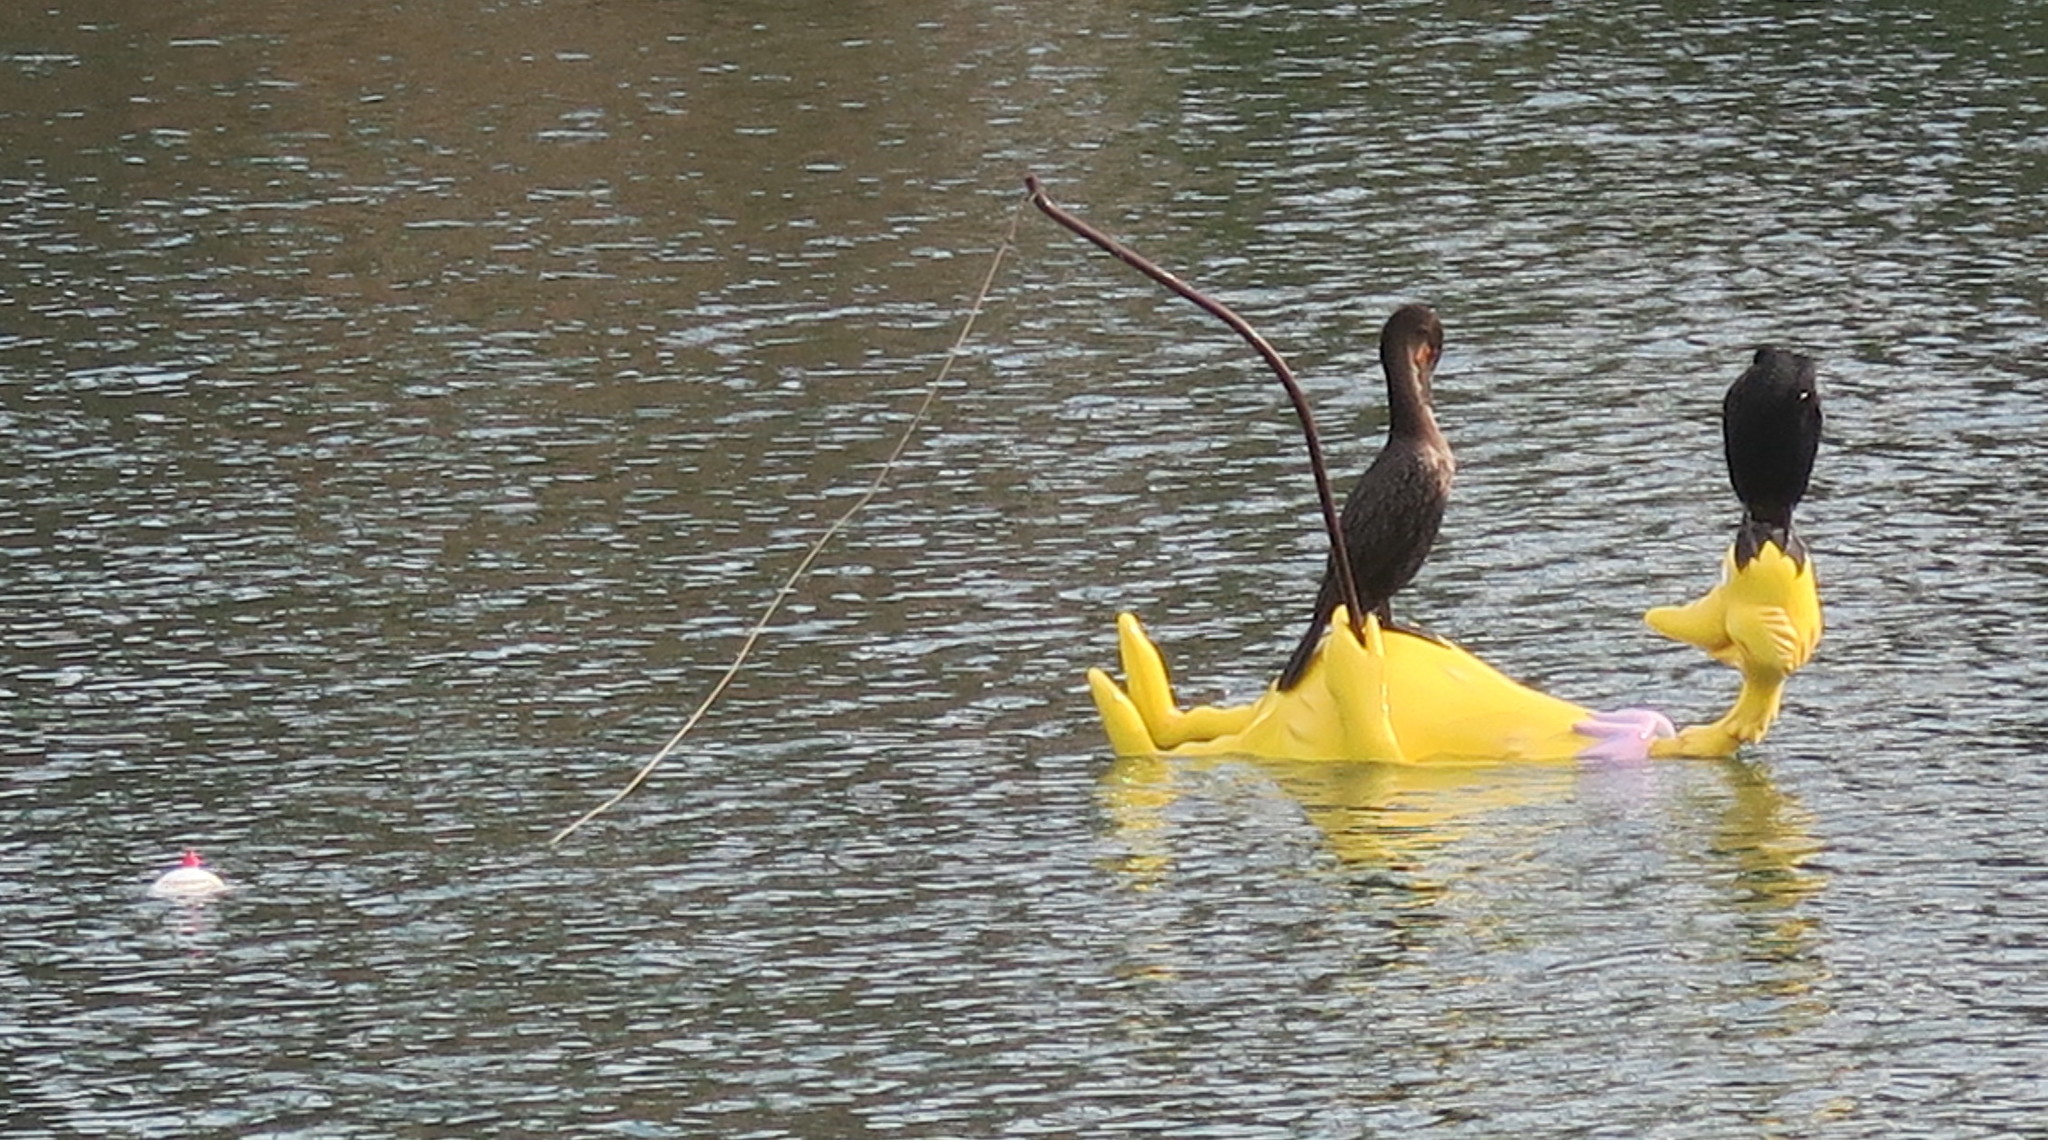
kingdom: Animalia
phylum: Chordata
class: Aves
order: Suliformes
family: Phalacrocoracidae
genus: Phalacrocorax
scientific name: Phalacrocorax auritus
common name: Double-crested cormorant
